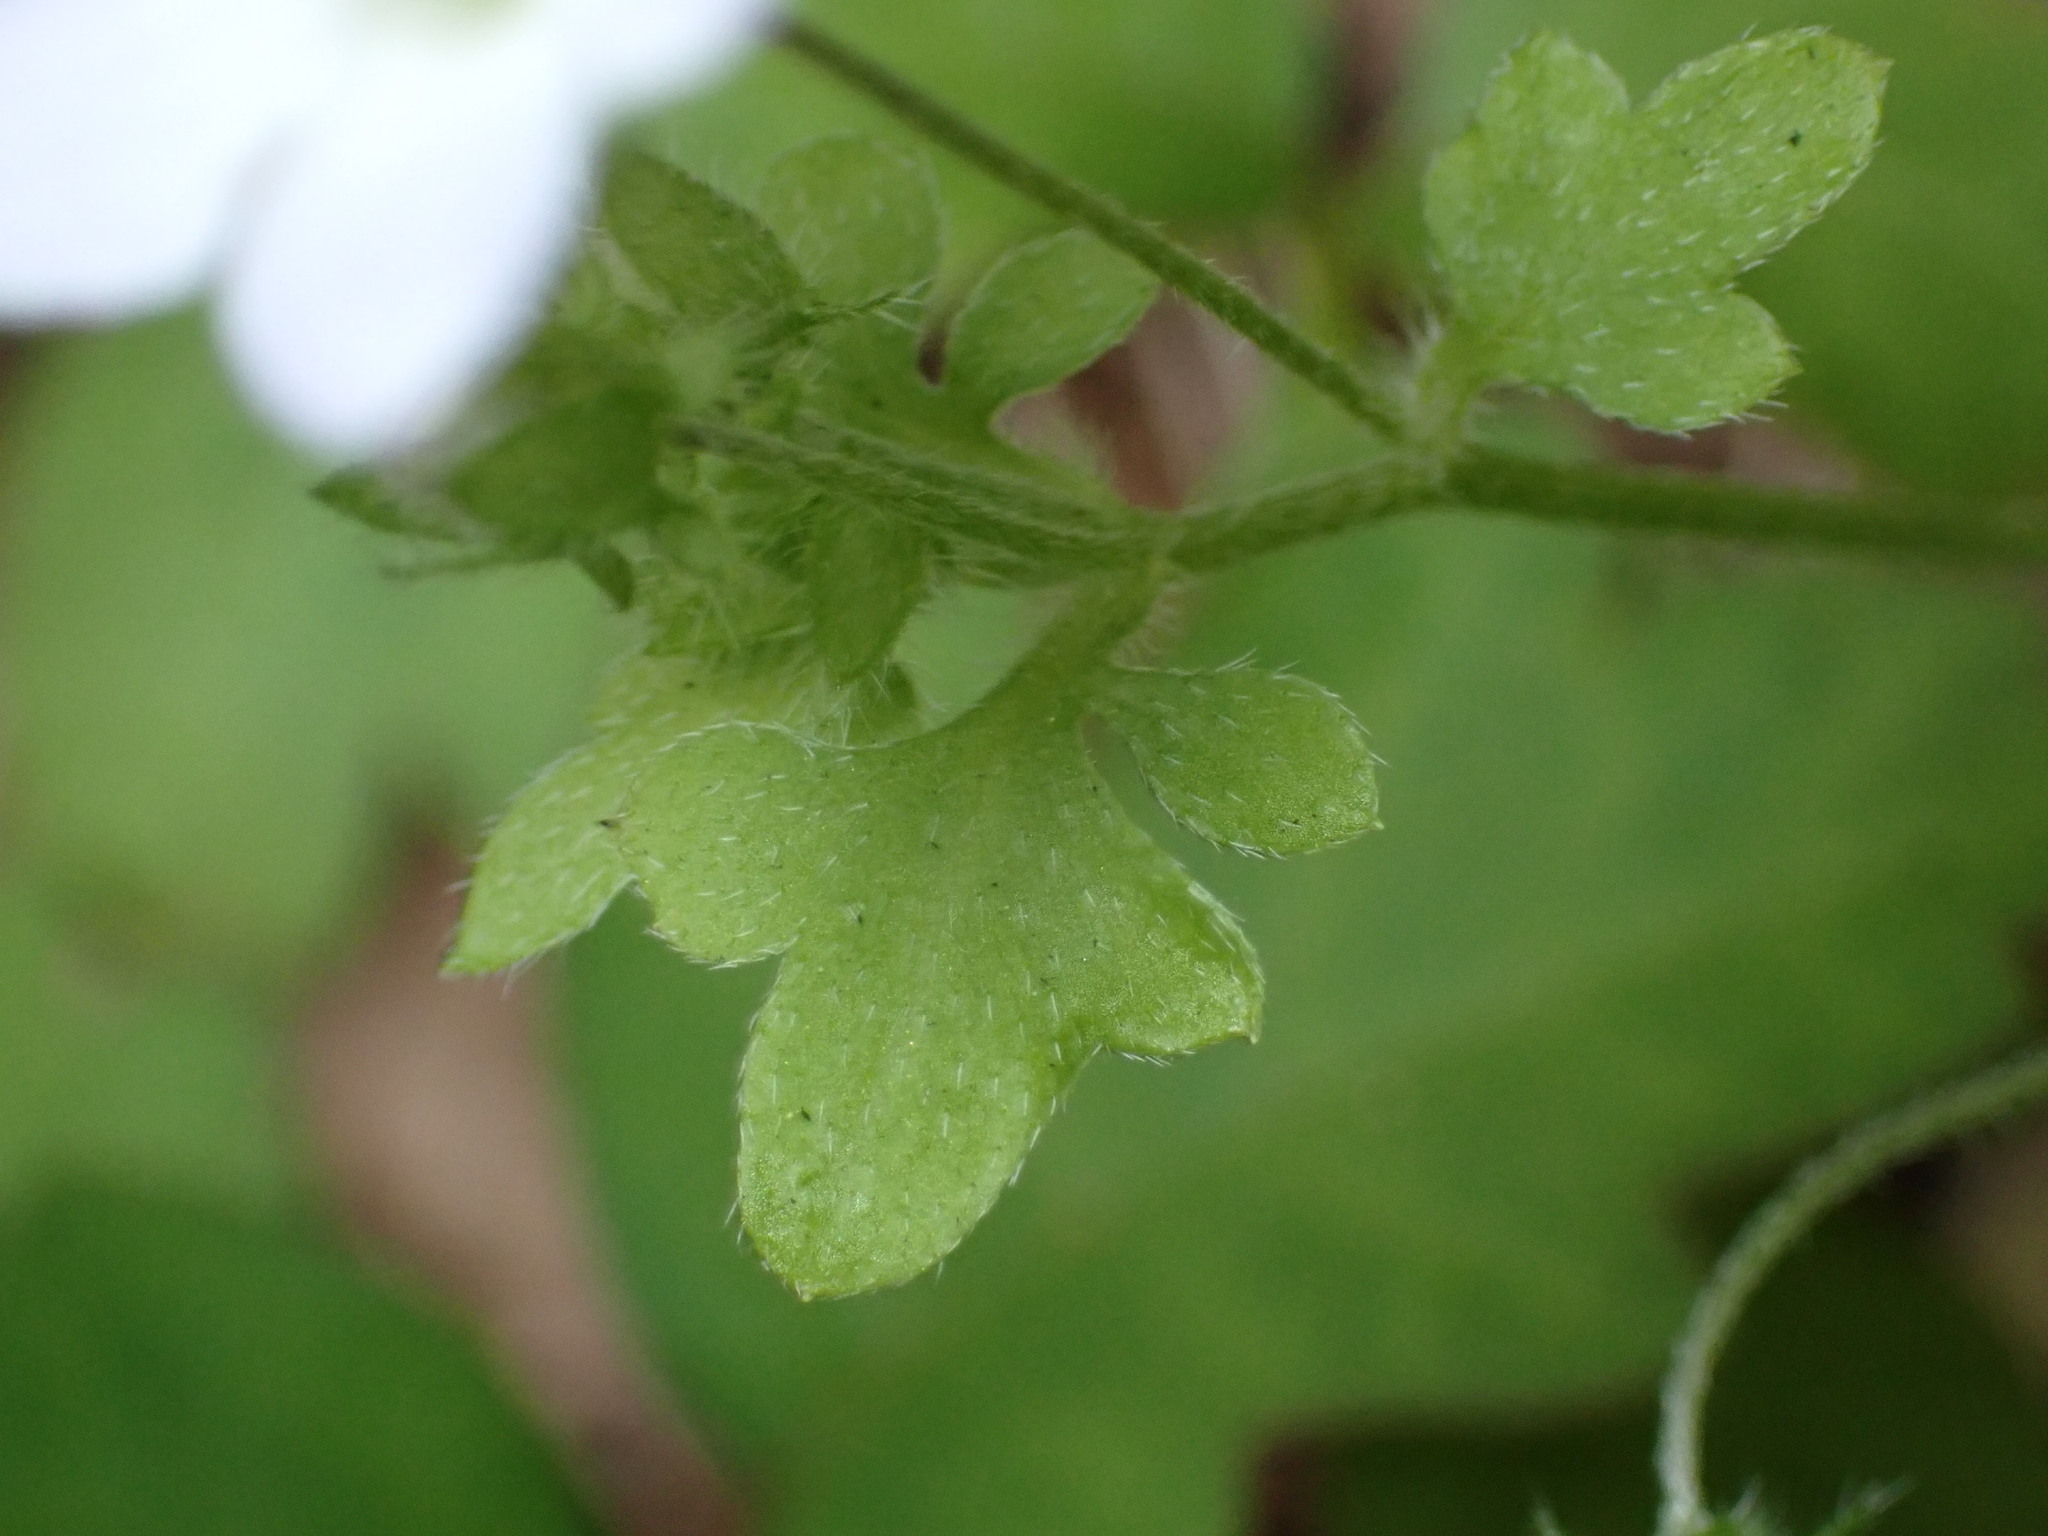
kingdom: Plantae
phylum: Tracheophyta
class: Magnoliopsida
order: Boraginales
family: Hydrophyllaceae
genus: Nemophila
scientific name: Nemophila heterophylla
